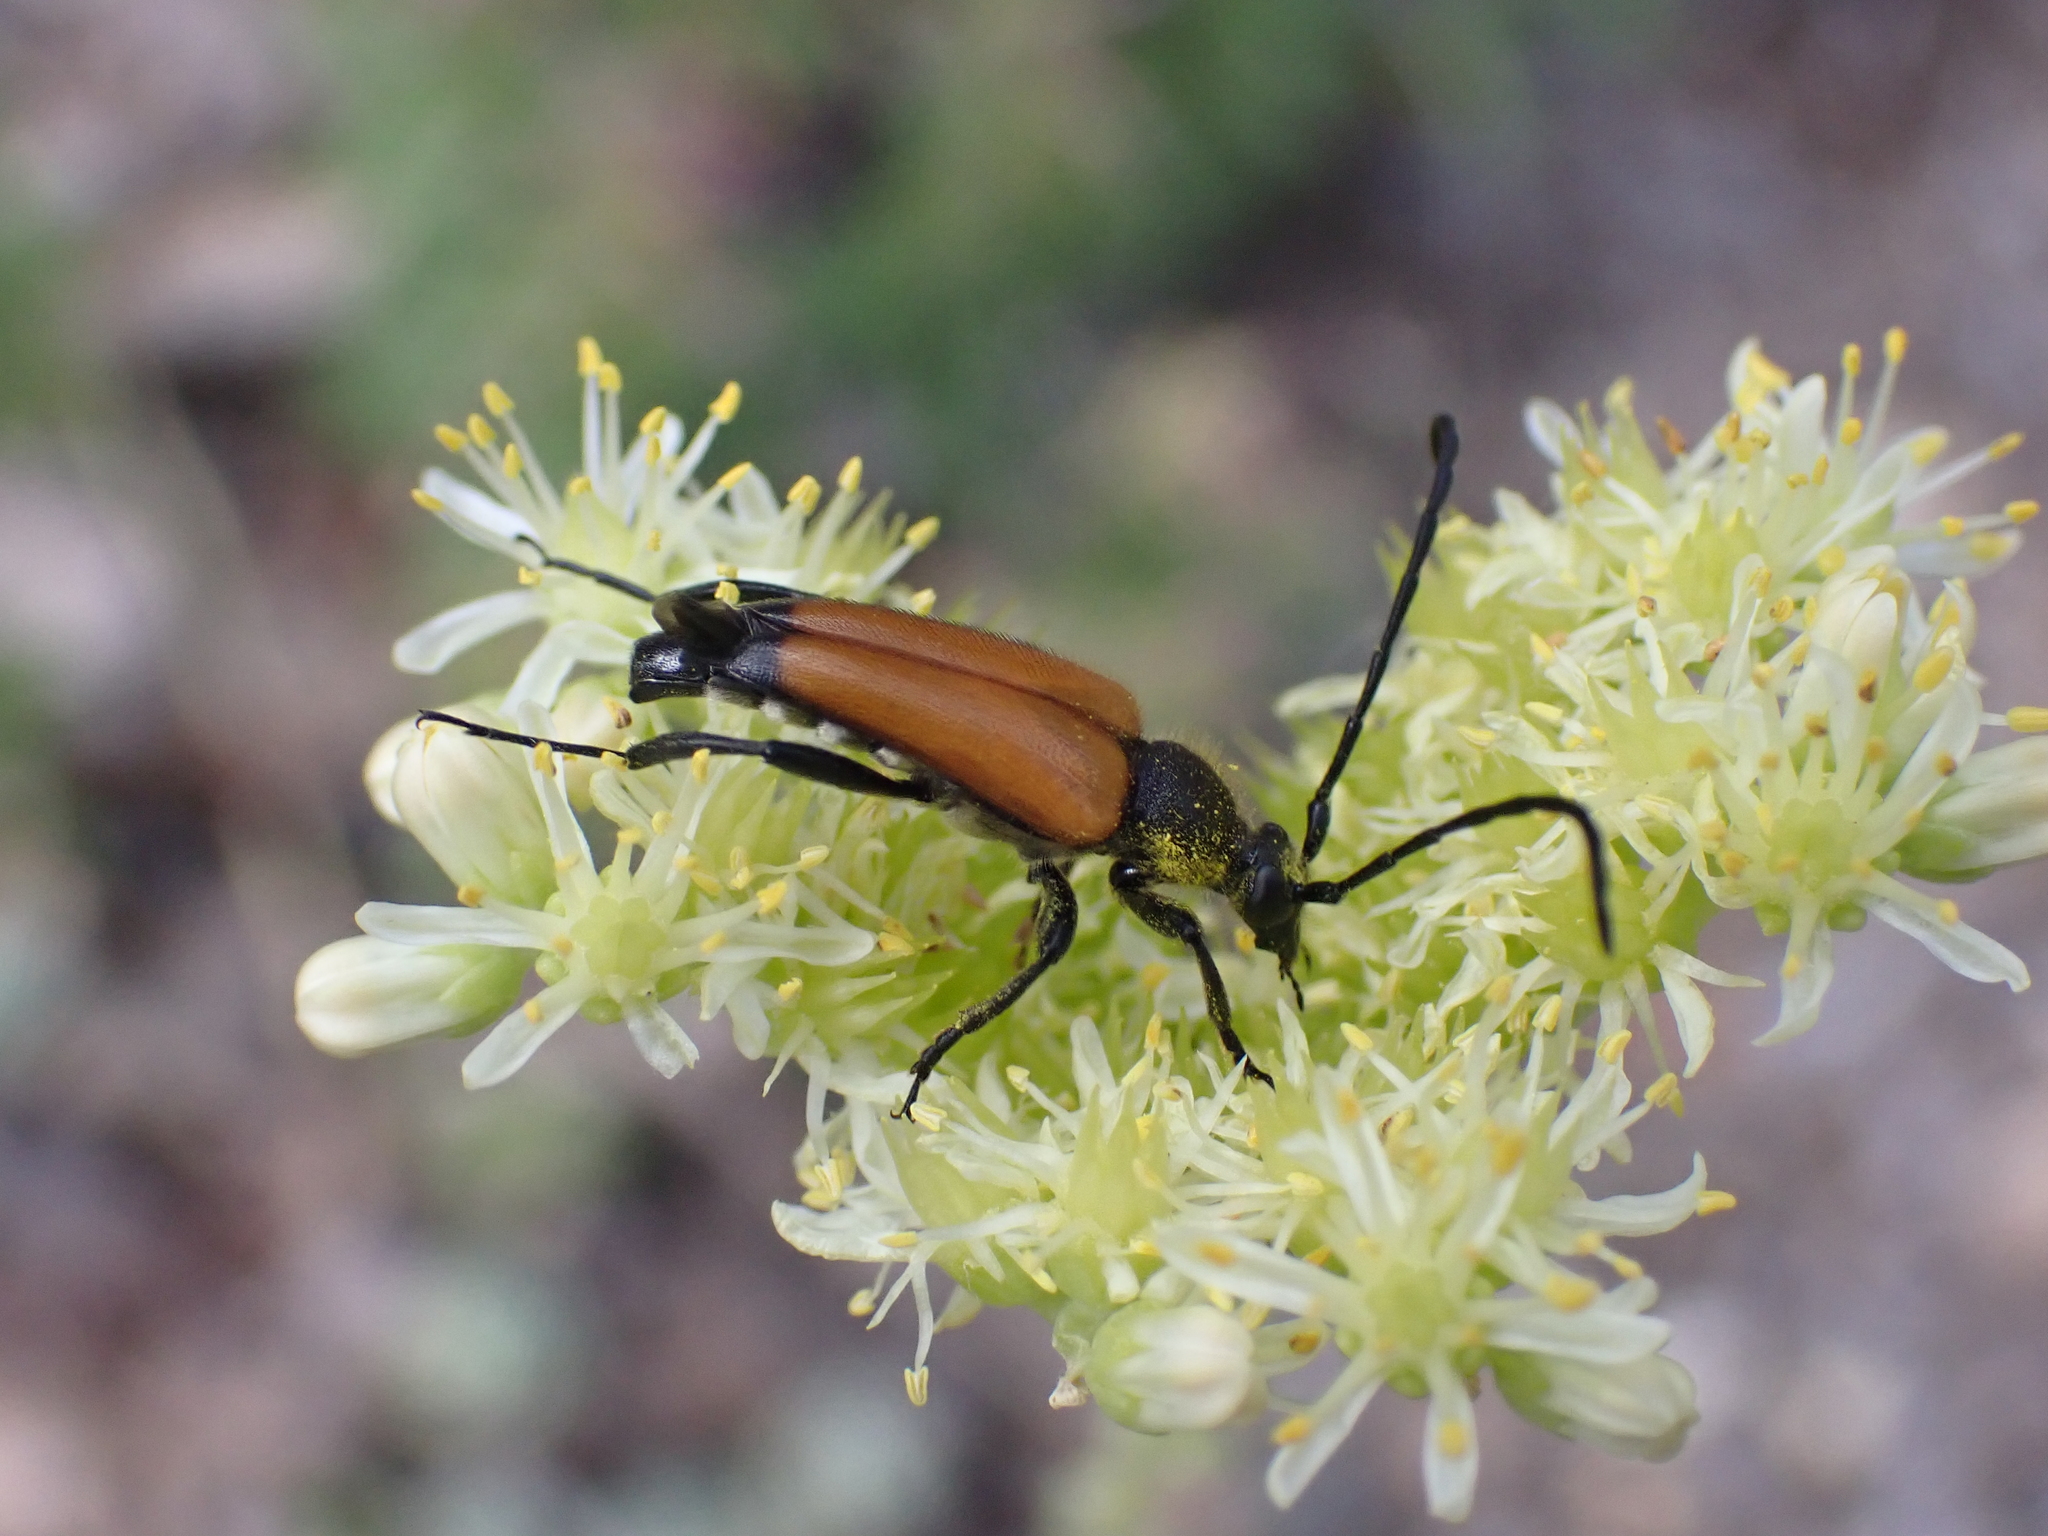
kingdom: Animalia
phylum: Arthropoda
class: Insecta
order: Coleoptera
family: Cerambycidae
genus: Paracorymbia
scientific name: Paracorymbia fulva
